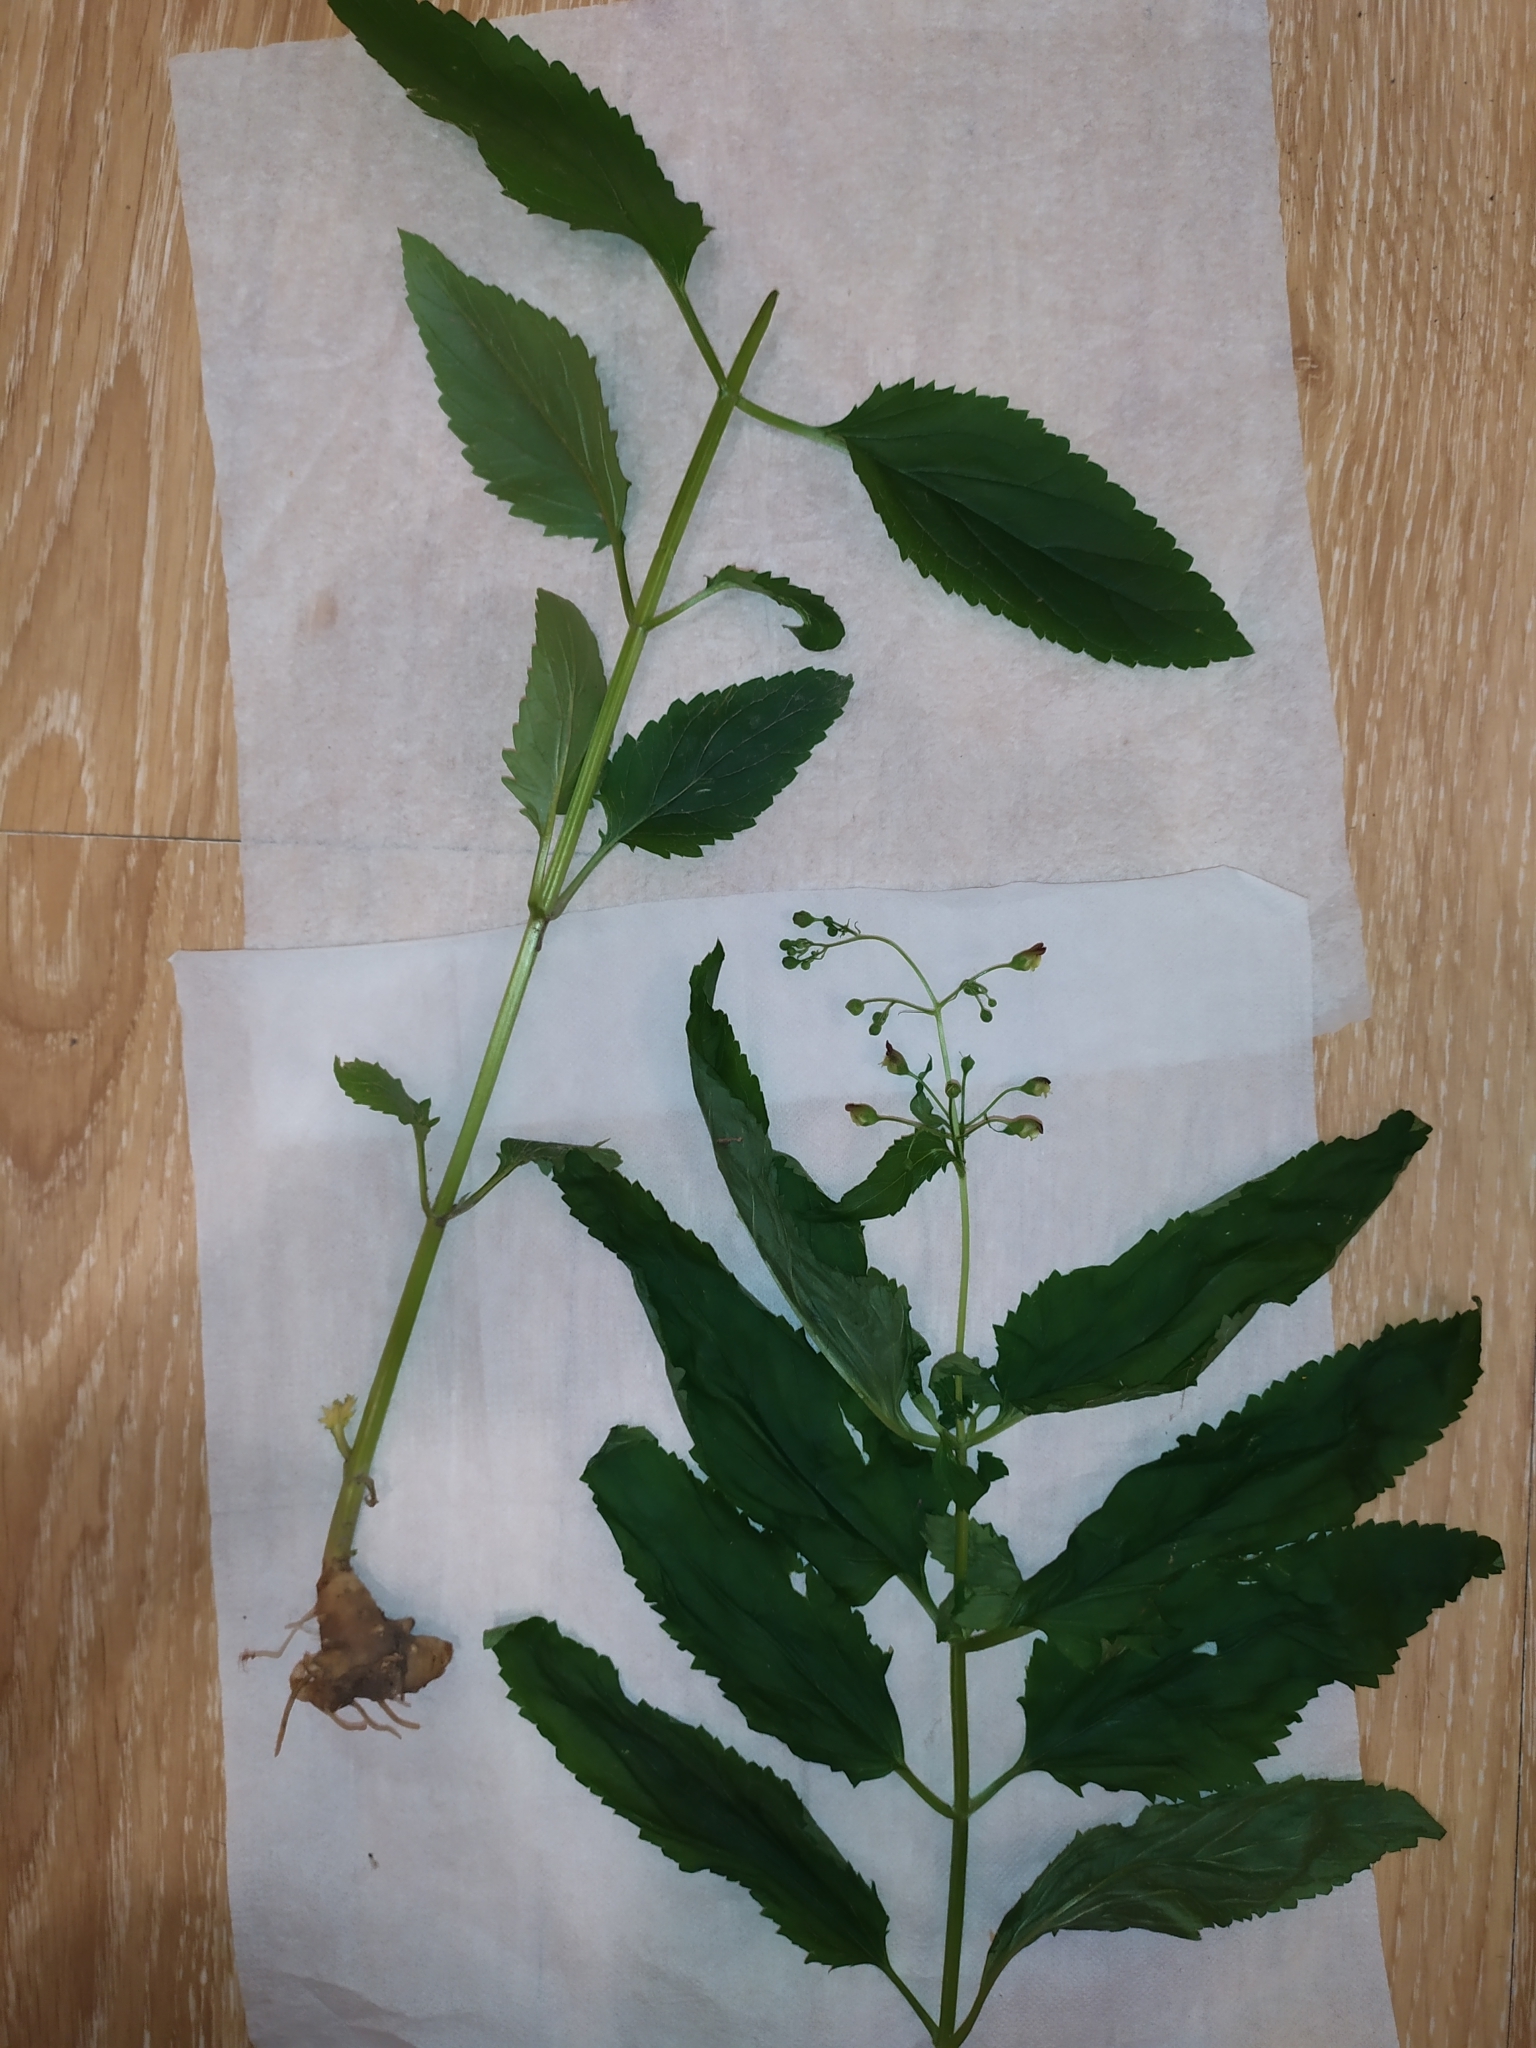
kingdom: Plantae
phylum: Tracheophyta
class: Magnoliopsida
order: Lamiales
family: Scrophulariaceae
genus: Scrophularia
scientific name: Scrophularia nodosa
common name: Common figwort
